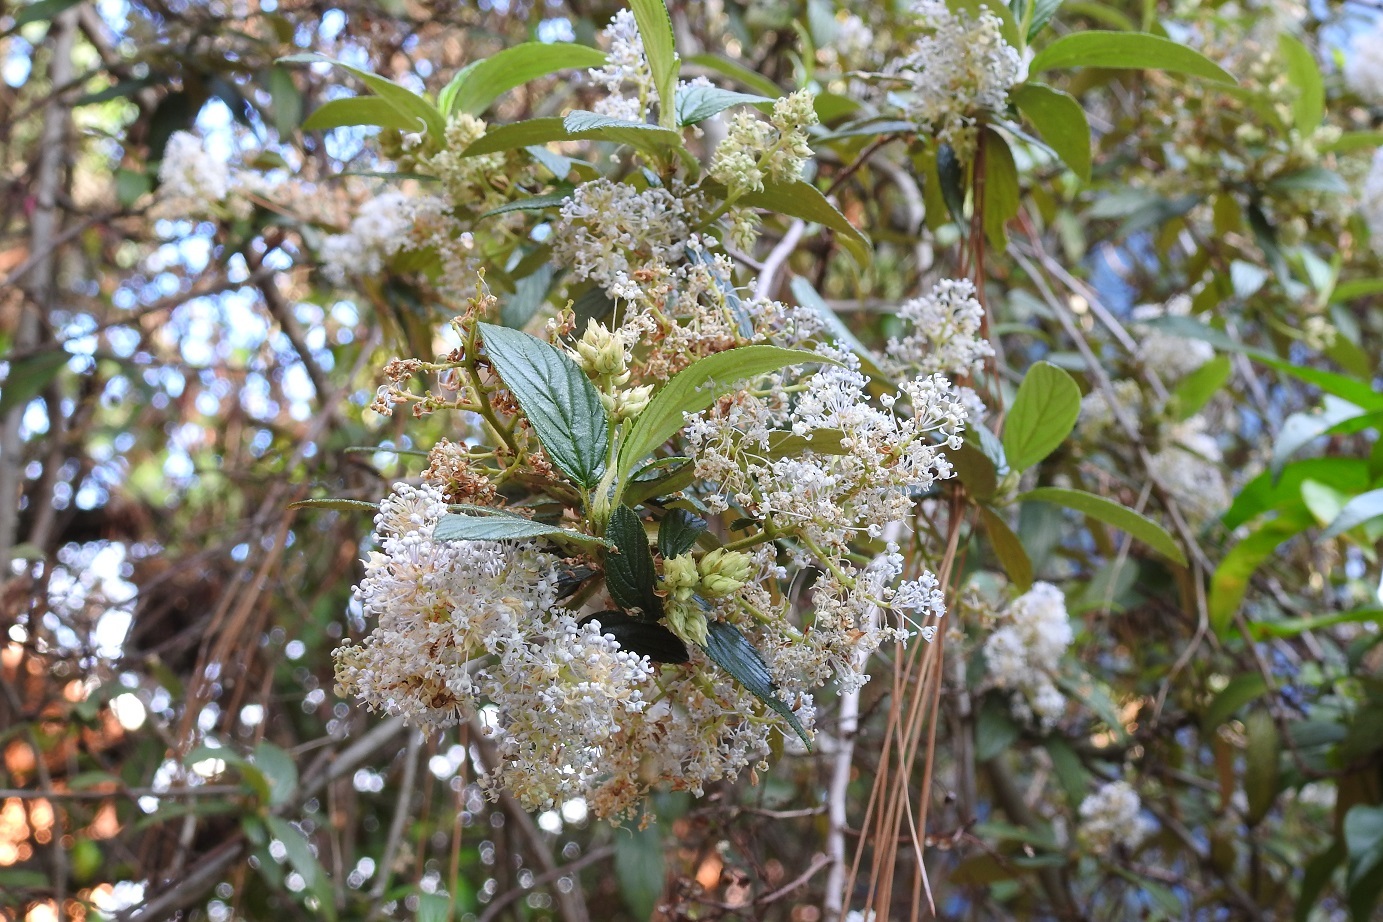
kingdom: Plantae
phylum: Tracheophyta
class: Magnoliopsida
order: Rosales
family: Rhamnaceae
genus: Ceanothus
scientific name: Ceanothus caeruleus
